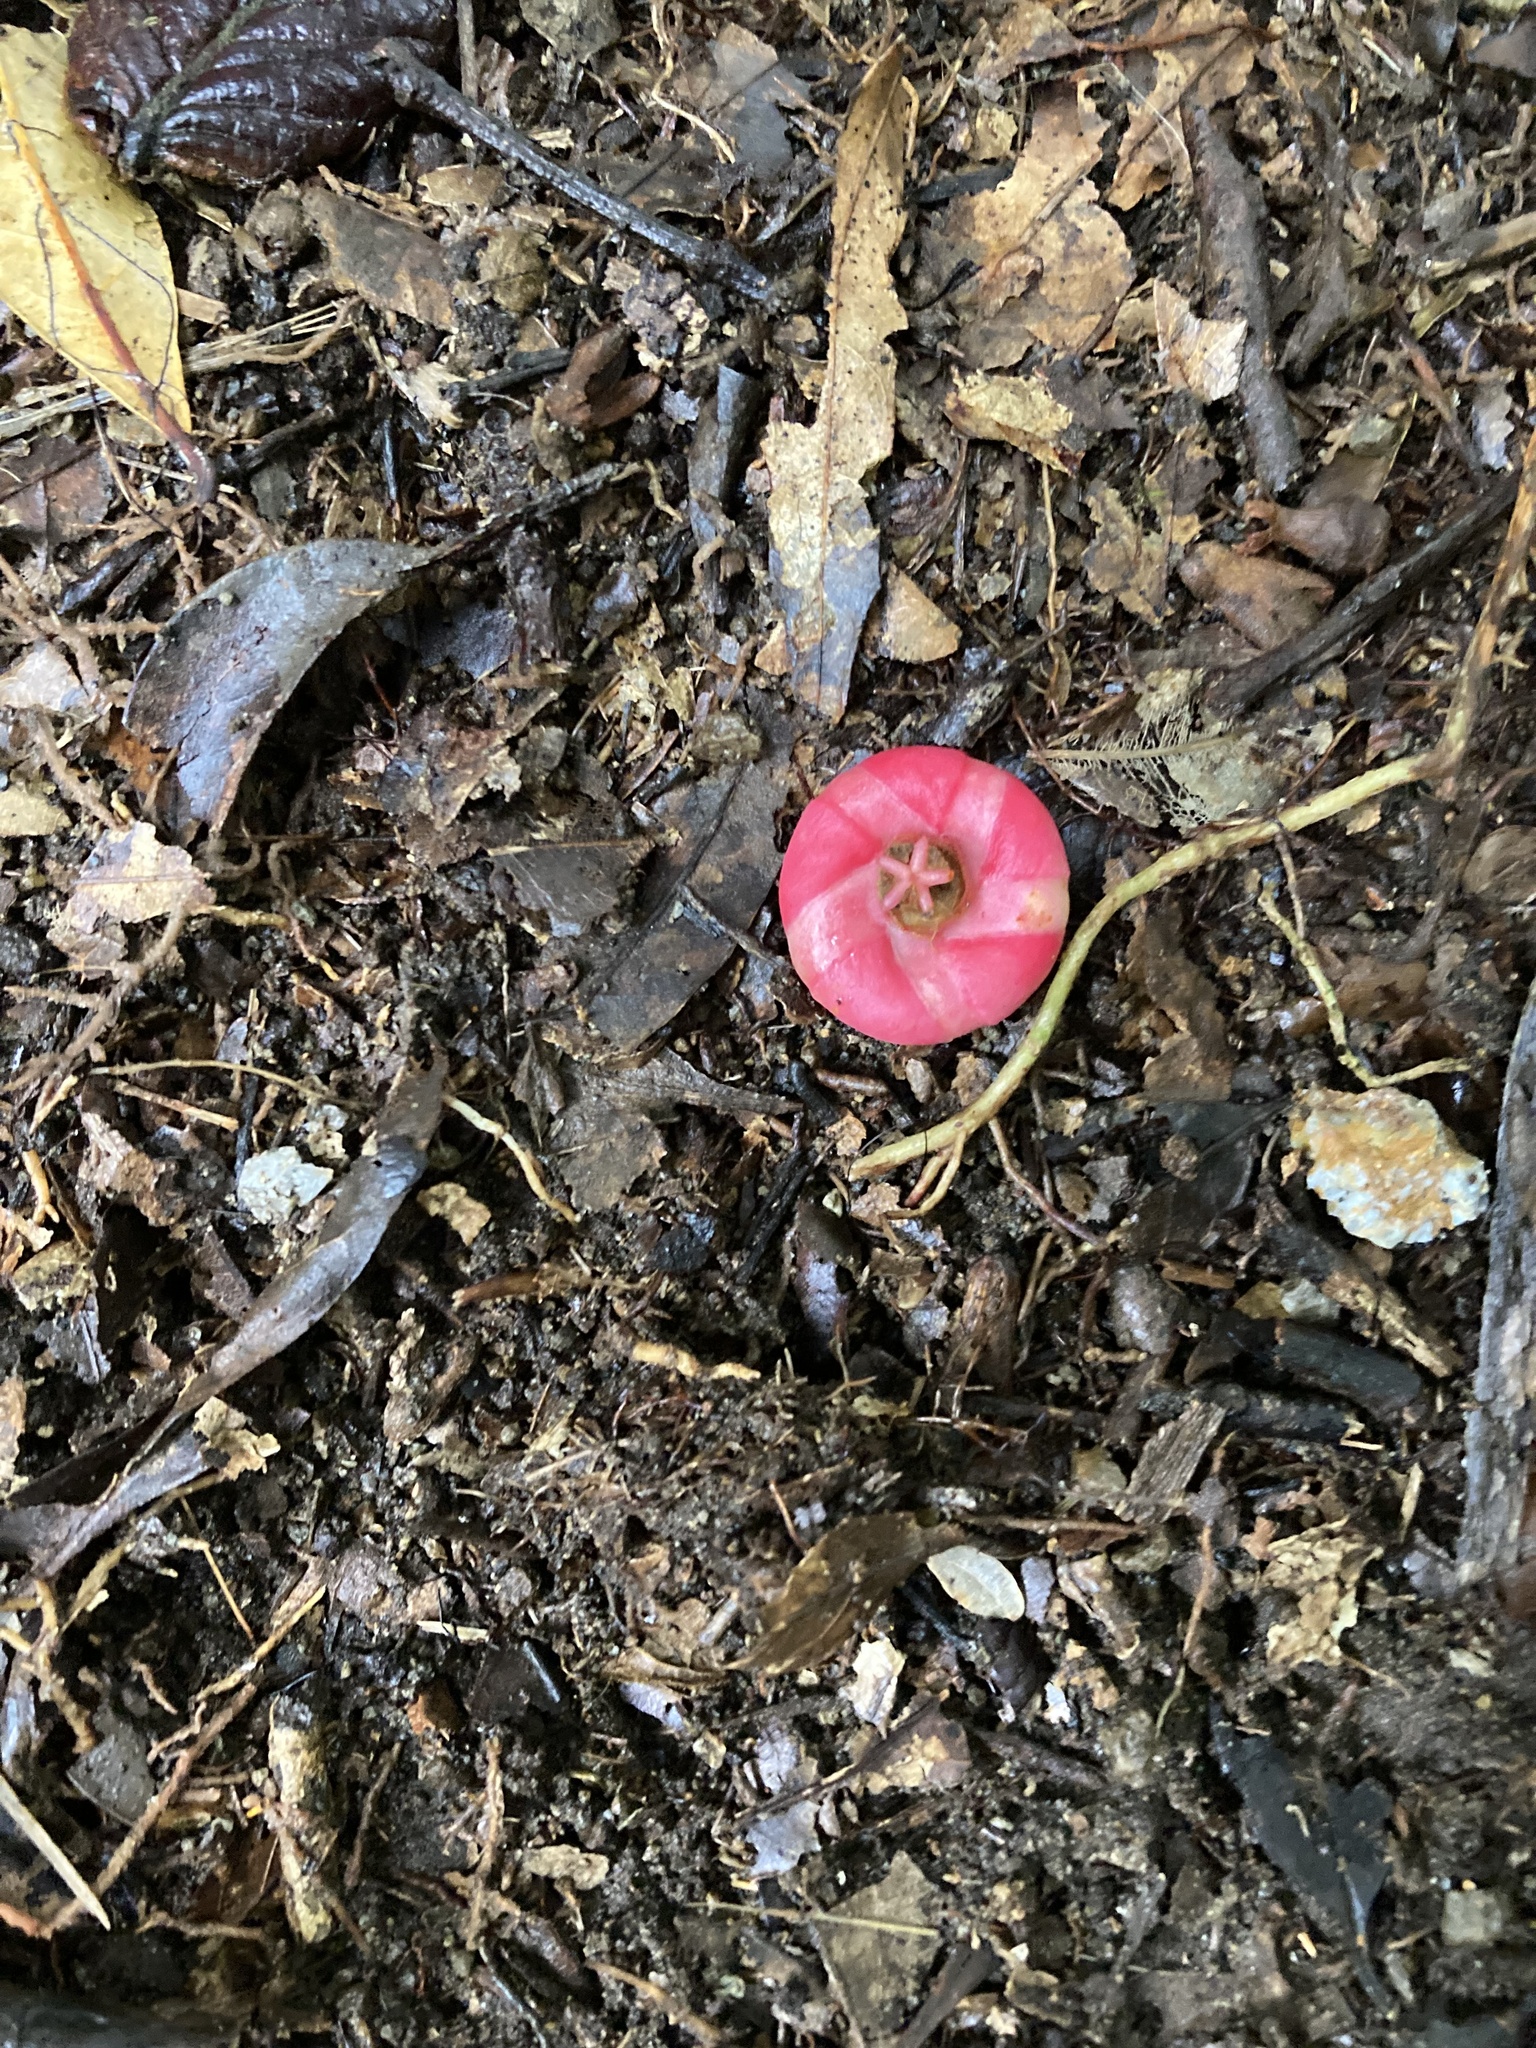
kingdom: Plantae
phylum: Tracheophyta
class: Magnoliopsida
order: Malpighiales
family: Clusiaceae
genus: Symphonia
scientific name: Symphonia globulifera
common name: Boarwood
